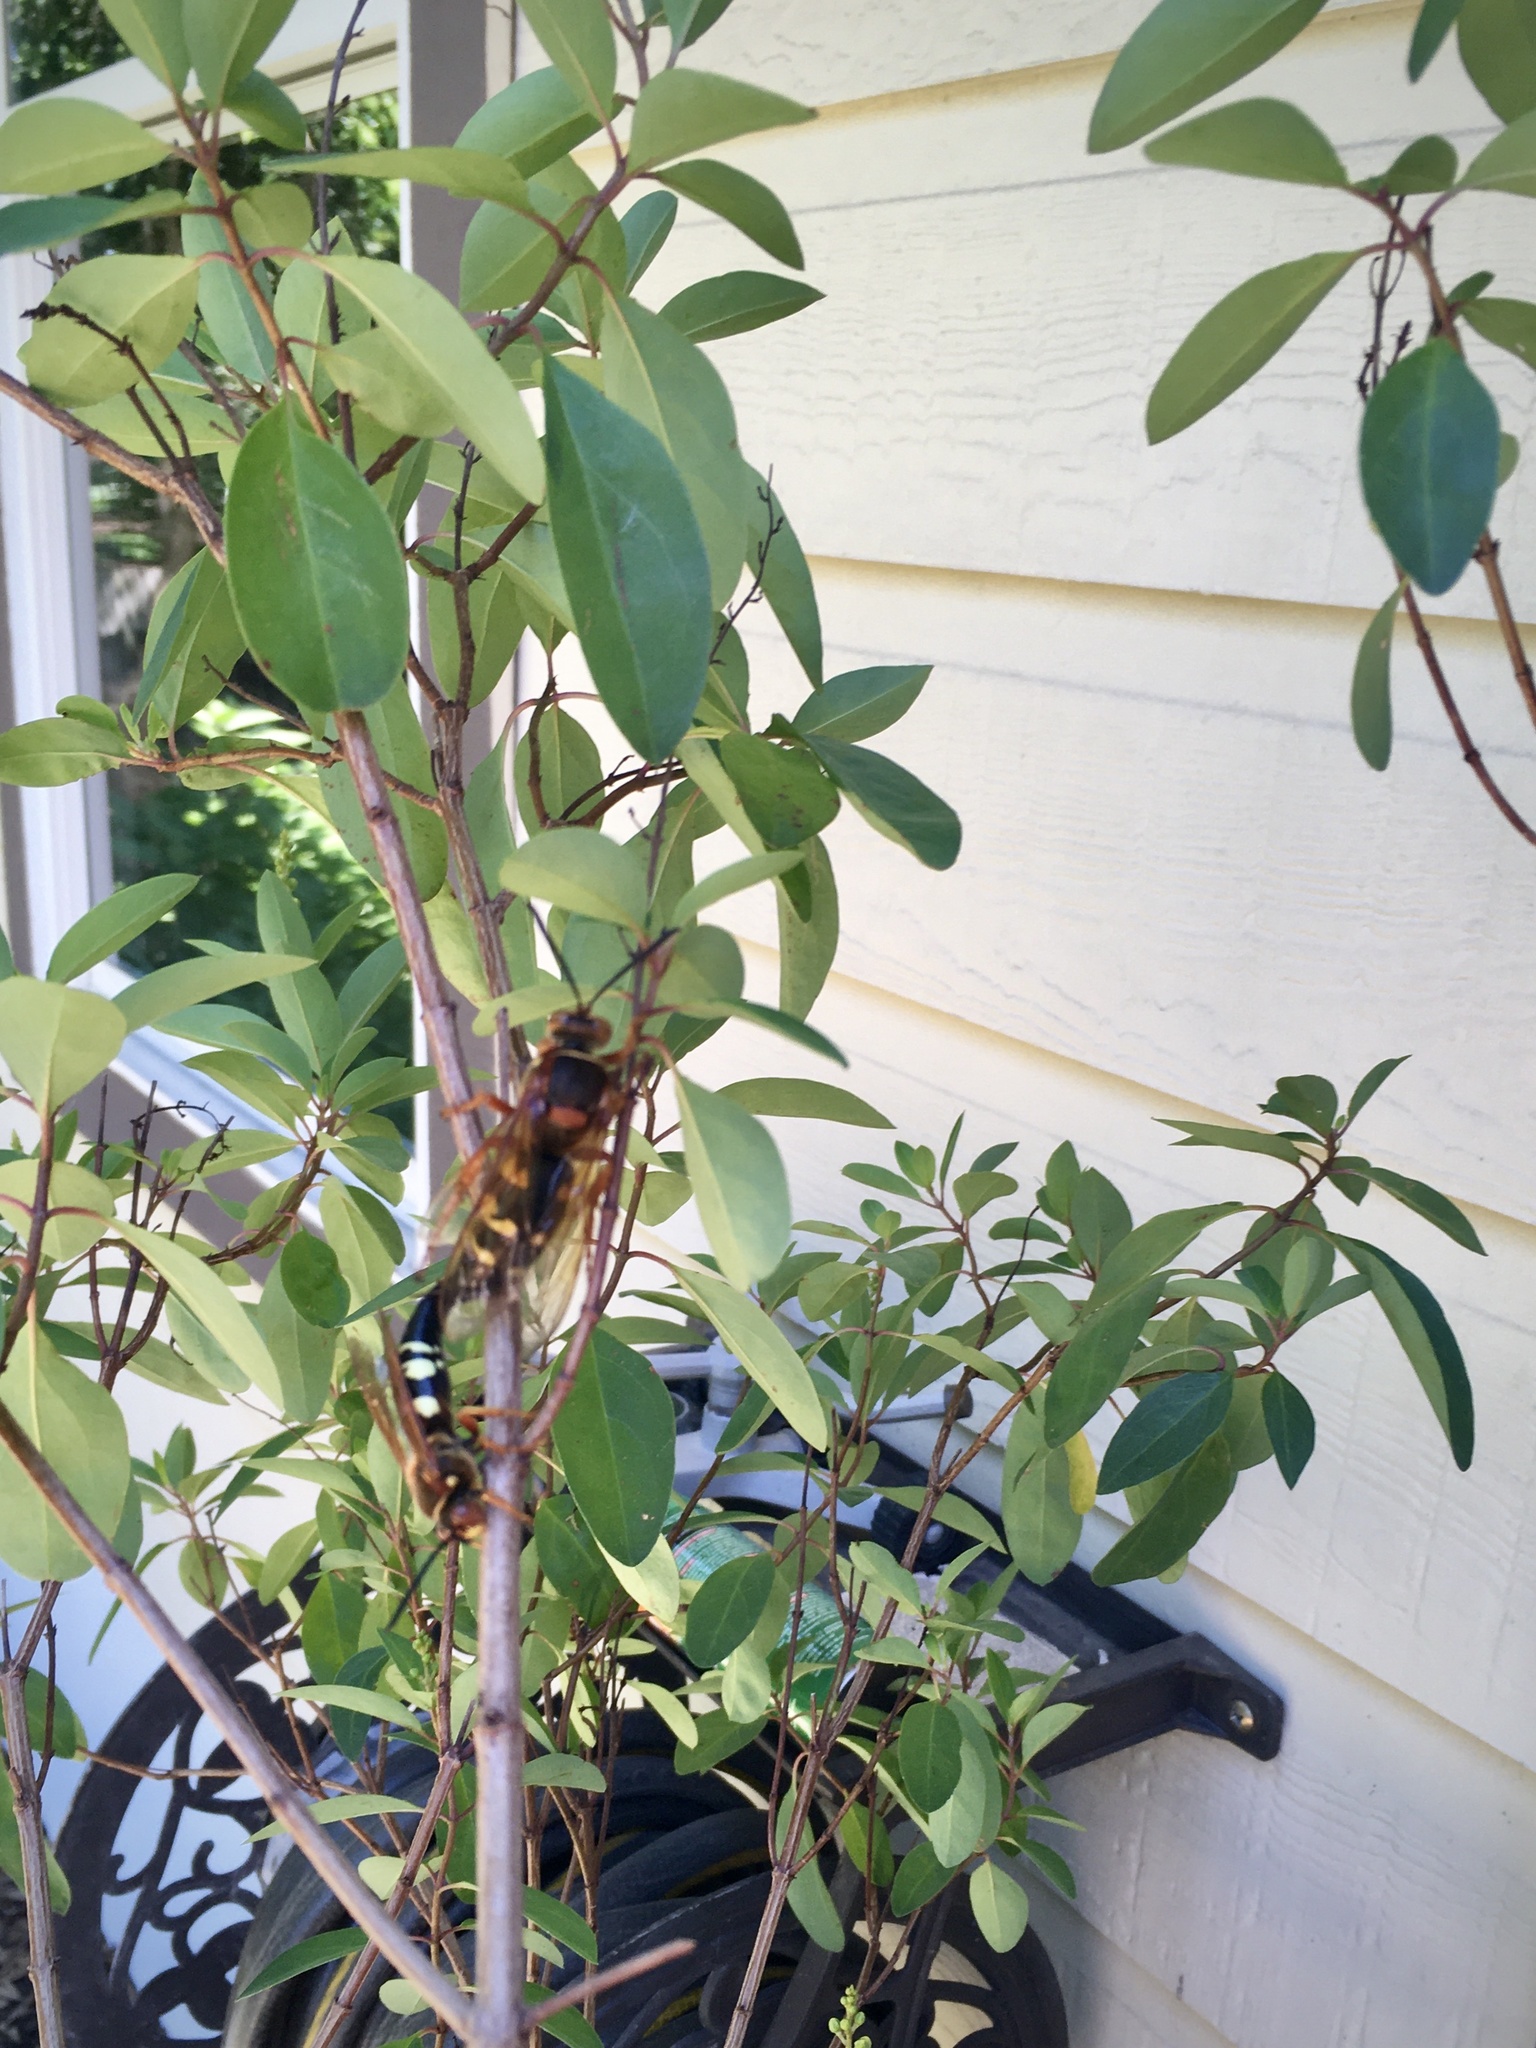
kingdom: Animalia
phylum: Arthropoda
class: Insecta
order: Hymenoptera
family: Crabronidae
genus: Sphecius
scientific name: Sphecius speciosus
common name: Cicada killer
